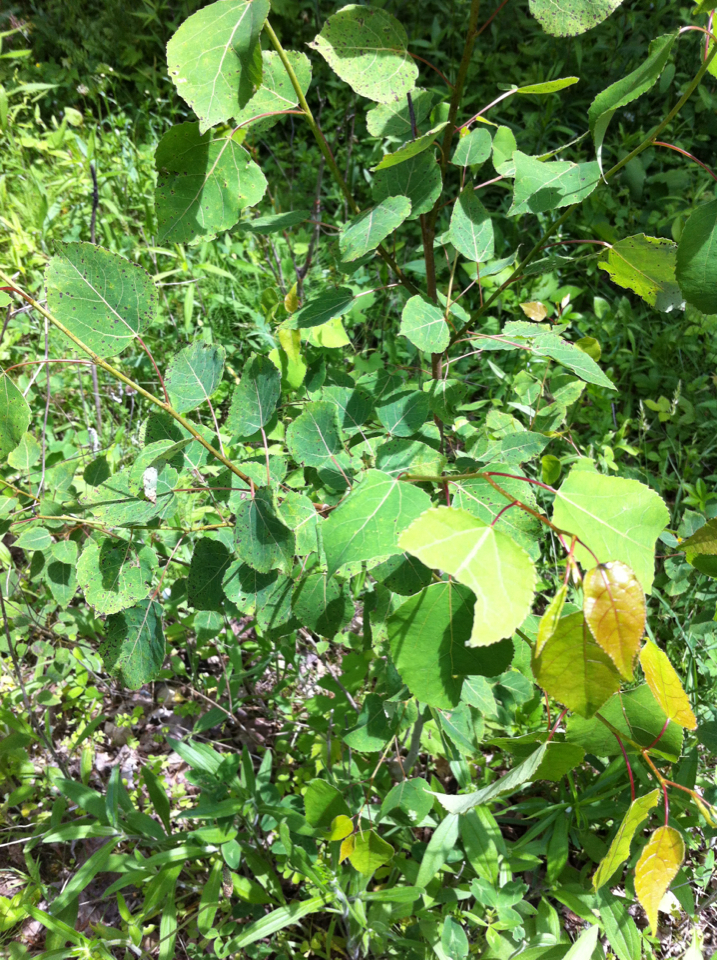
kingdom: Plantae
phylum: Tracheophyta
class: Magnoliopsida
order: Malpighiales
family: Salicaceae
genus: Populus
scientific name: Populus tremuloides
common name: Quaking aspen
